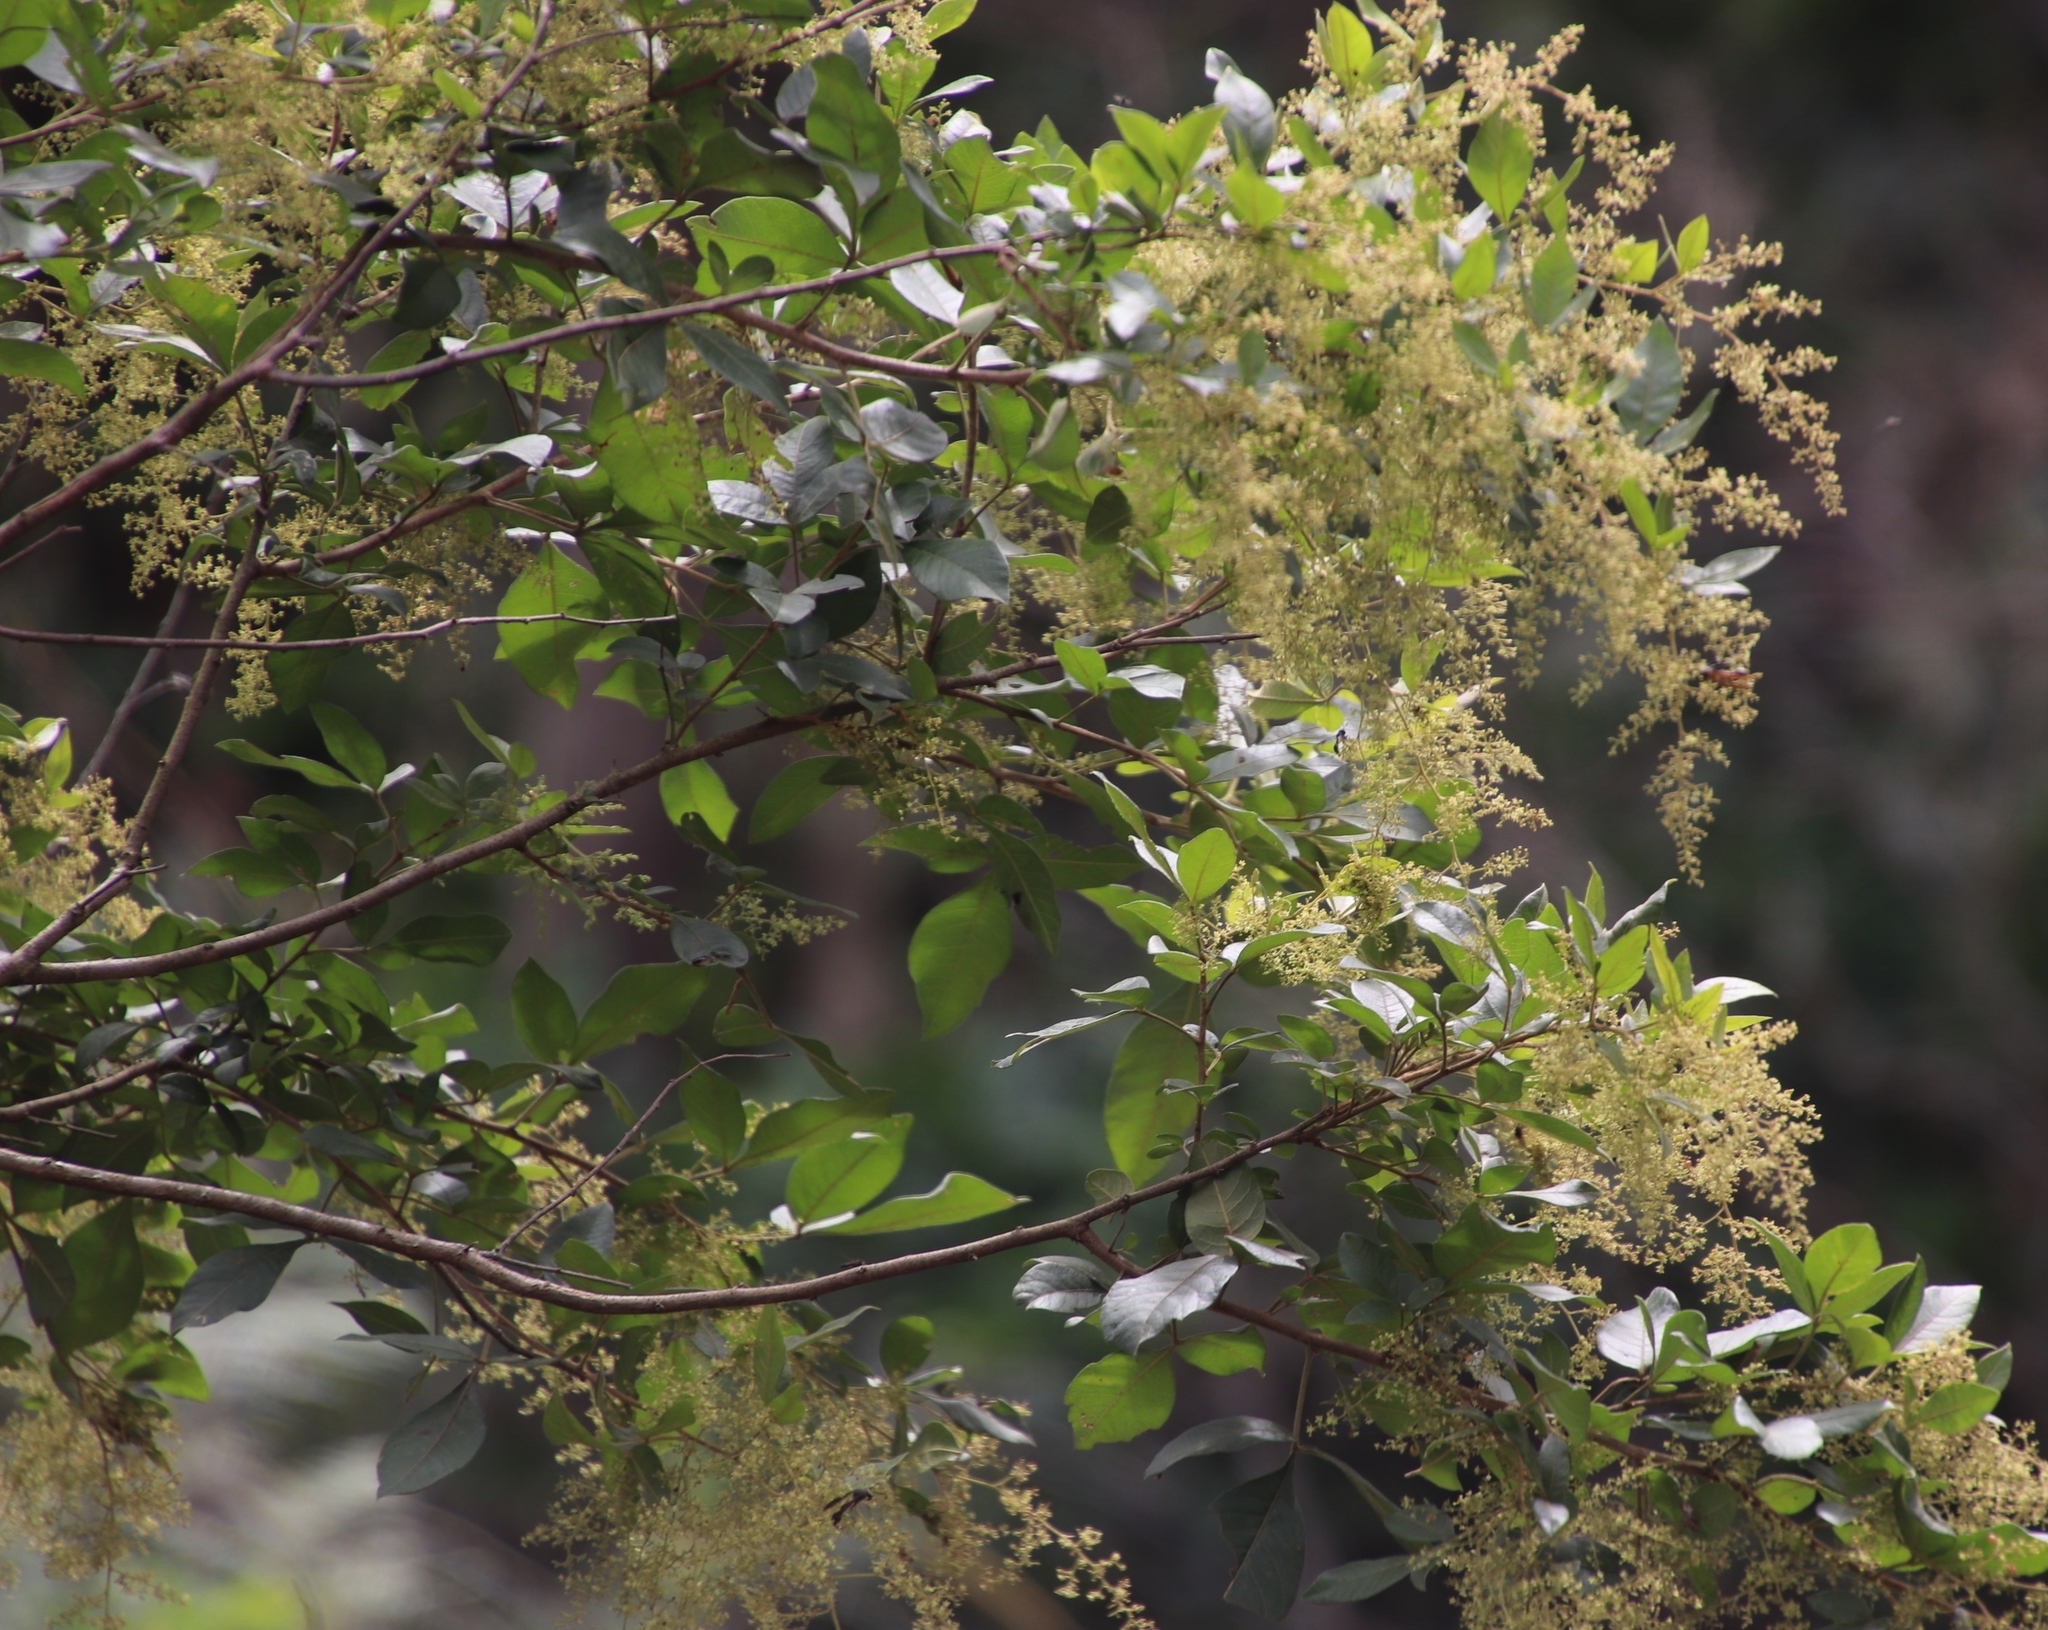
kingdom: Plantae
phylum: Tracheophyta
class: Magnoliopsida
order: Sapindales
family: Anacardiaceae
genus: Searsia
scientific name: Searsia pyroides
